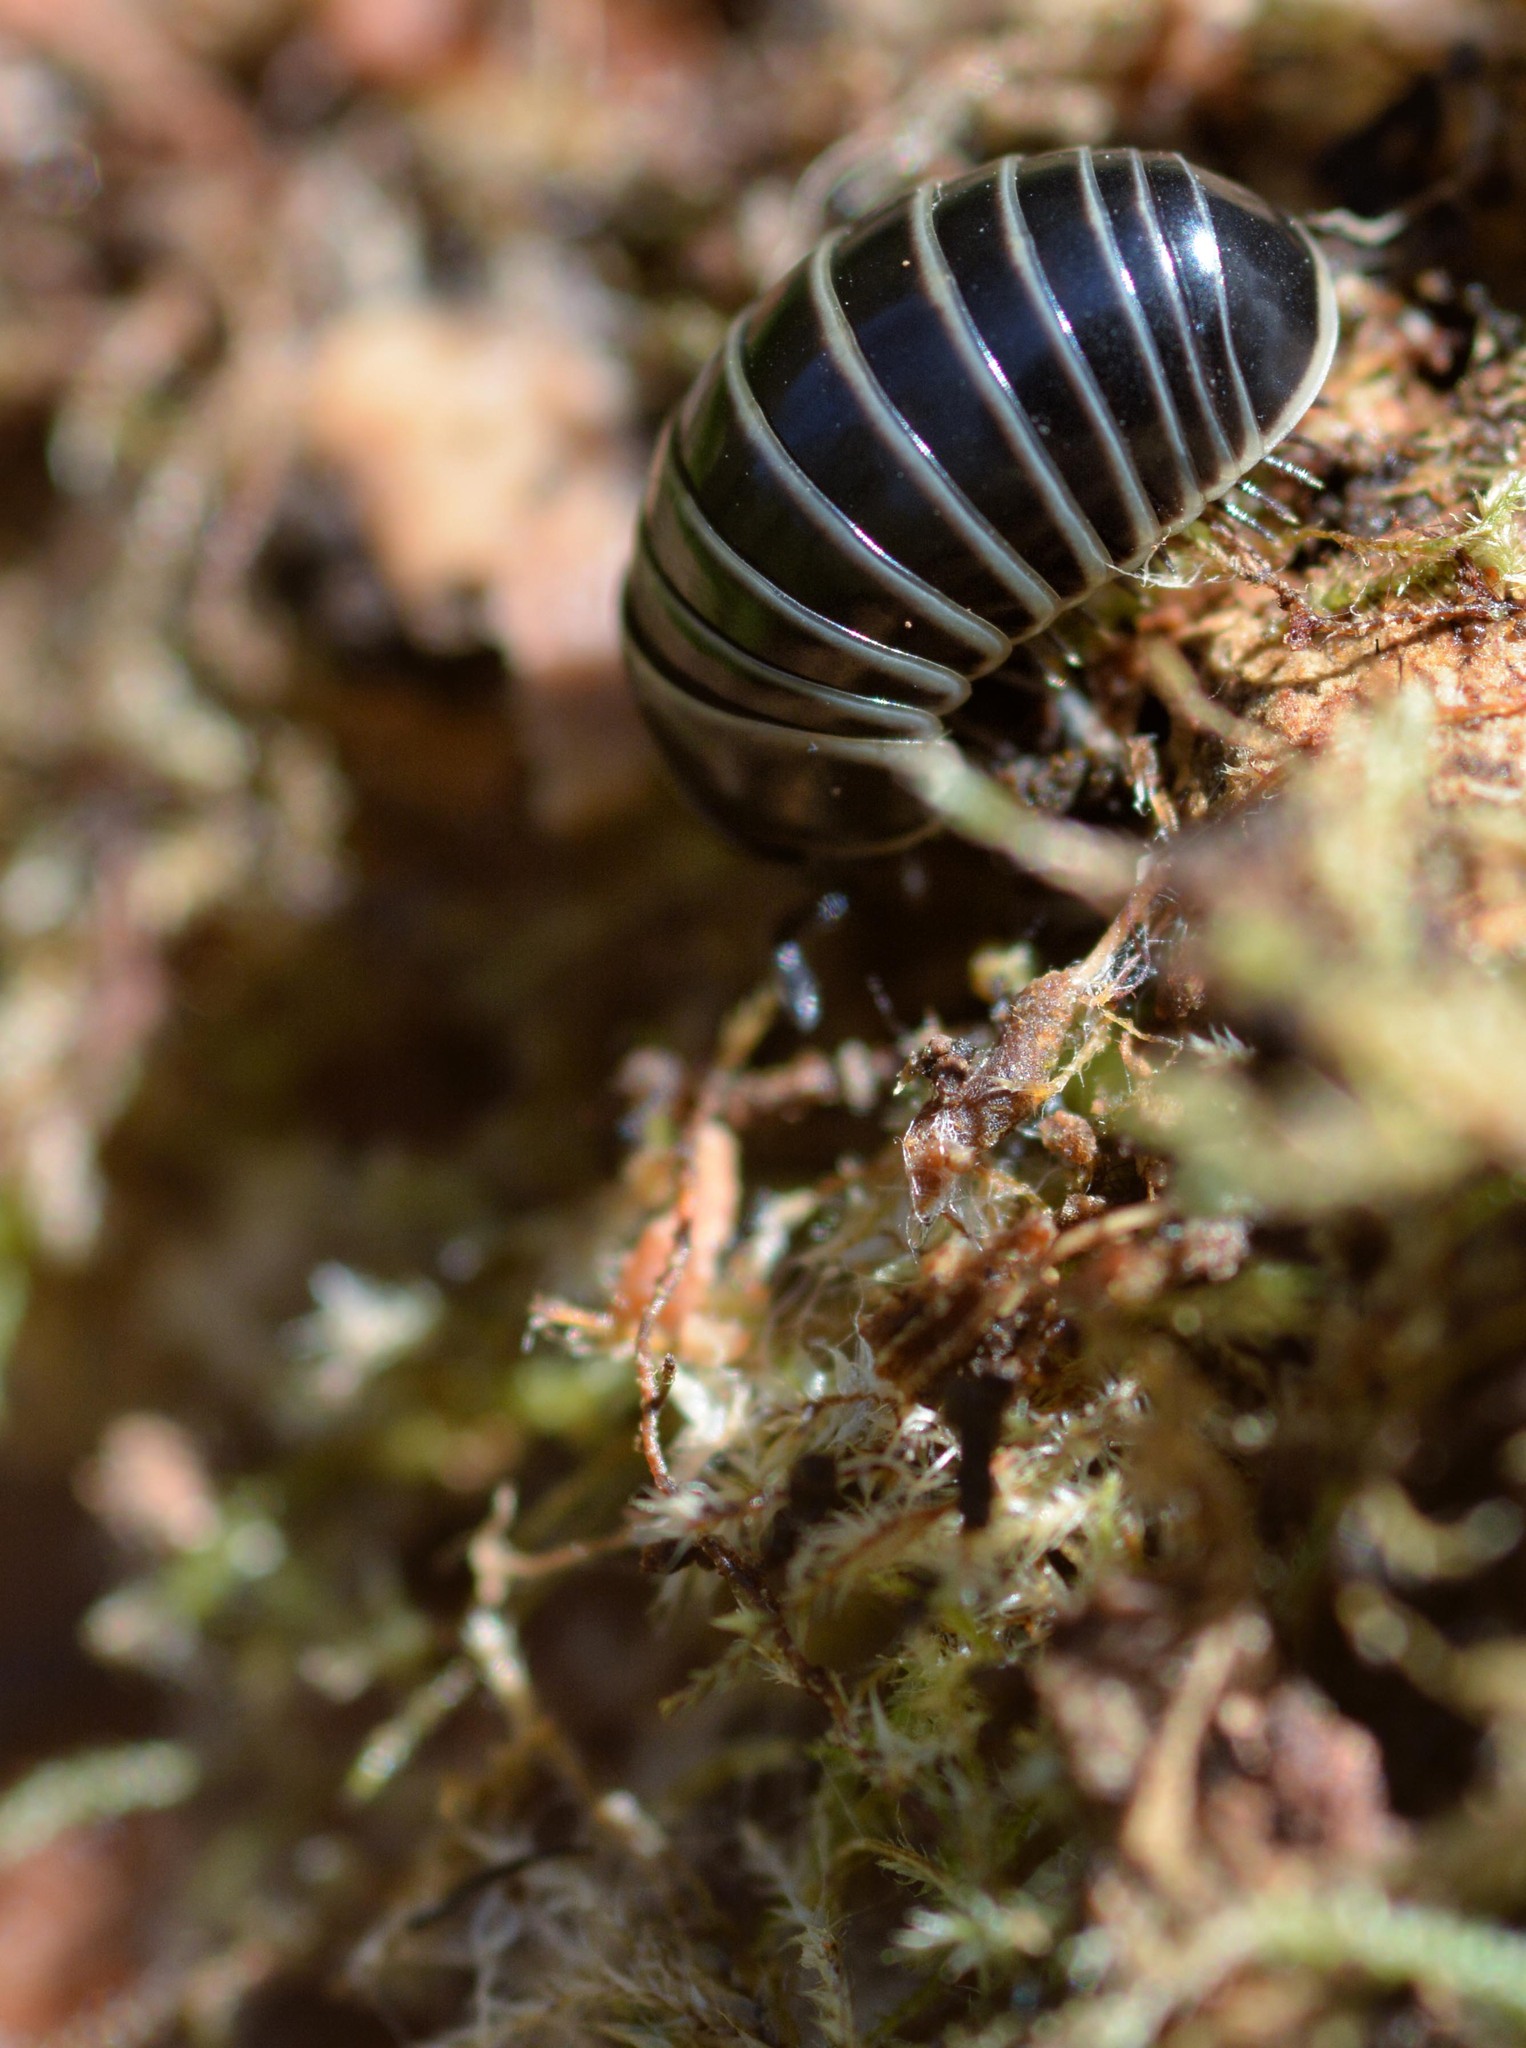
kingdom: Animalia
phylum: Arthropoda
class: Diplopoda
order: Glomerida
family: Glomeridae
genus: Glomeris
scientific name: Glomeris marginata
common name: Bordered pill millipede
